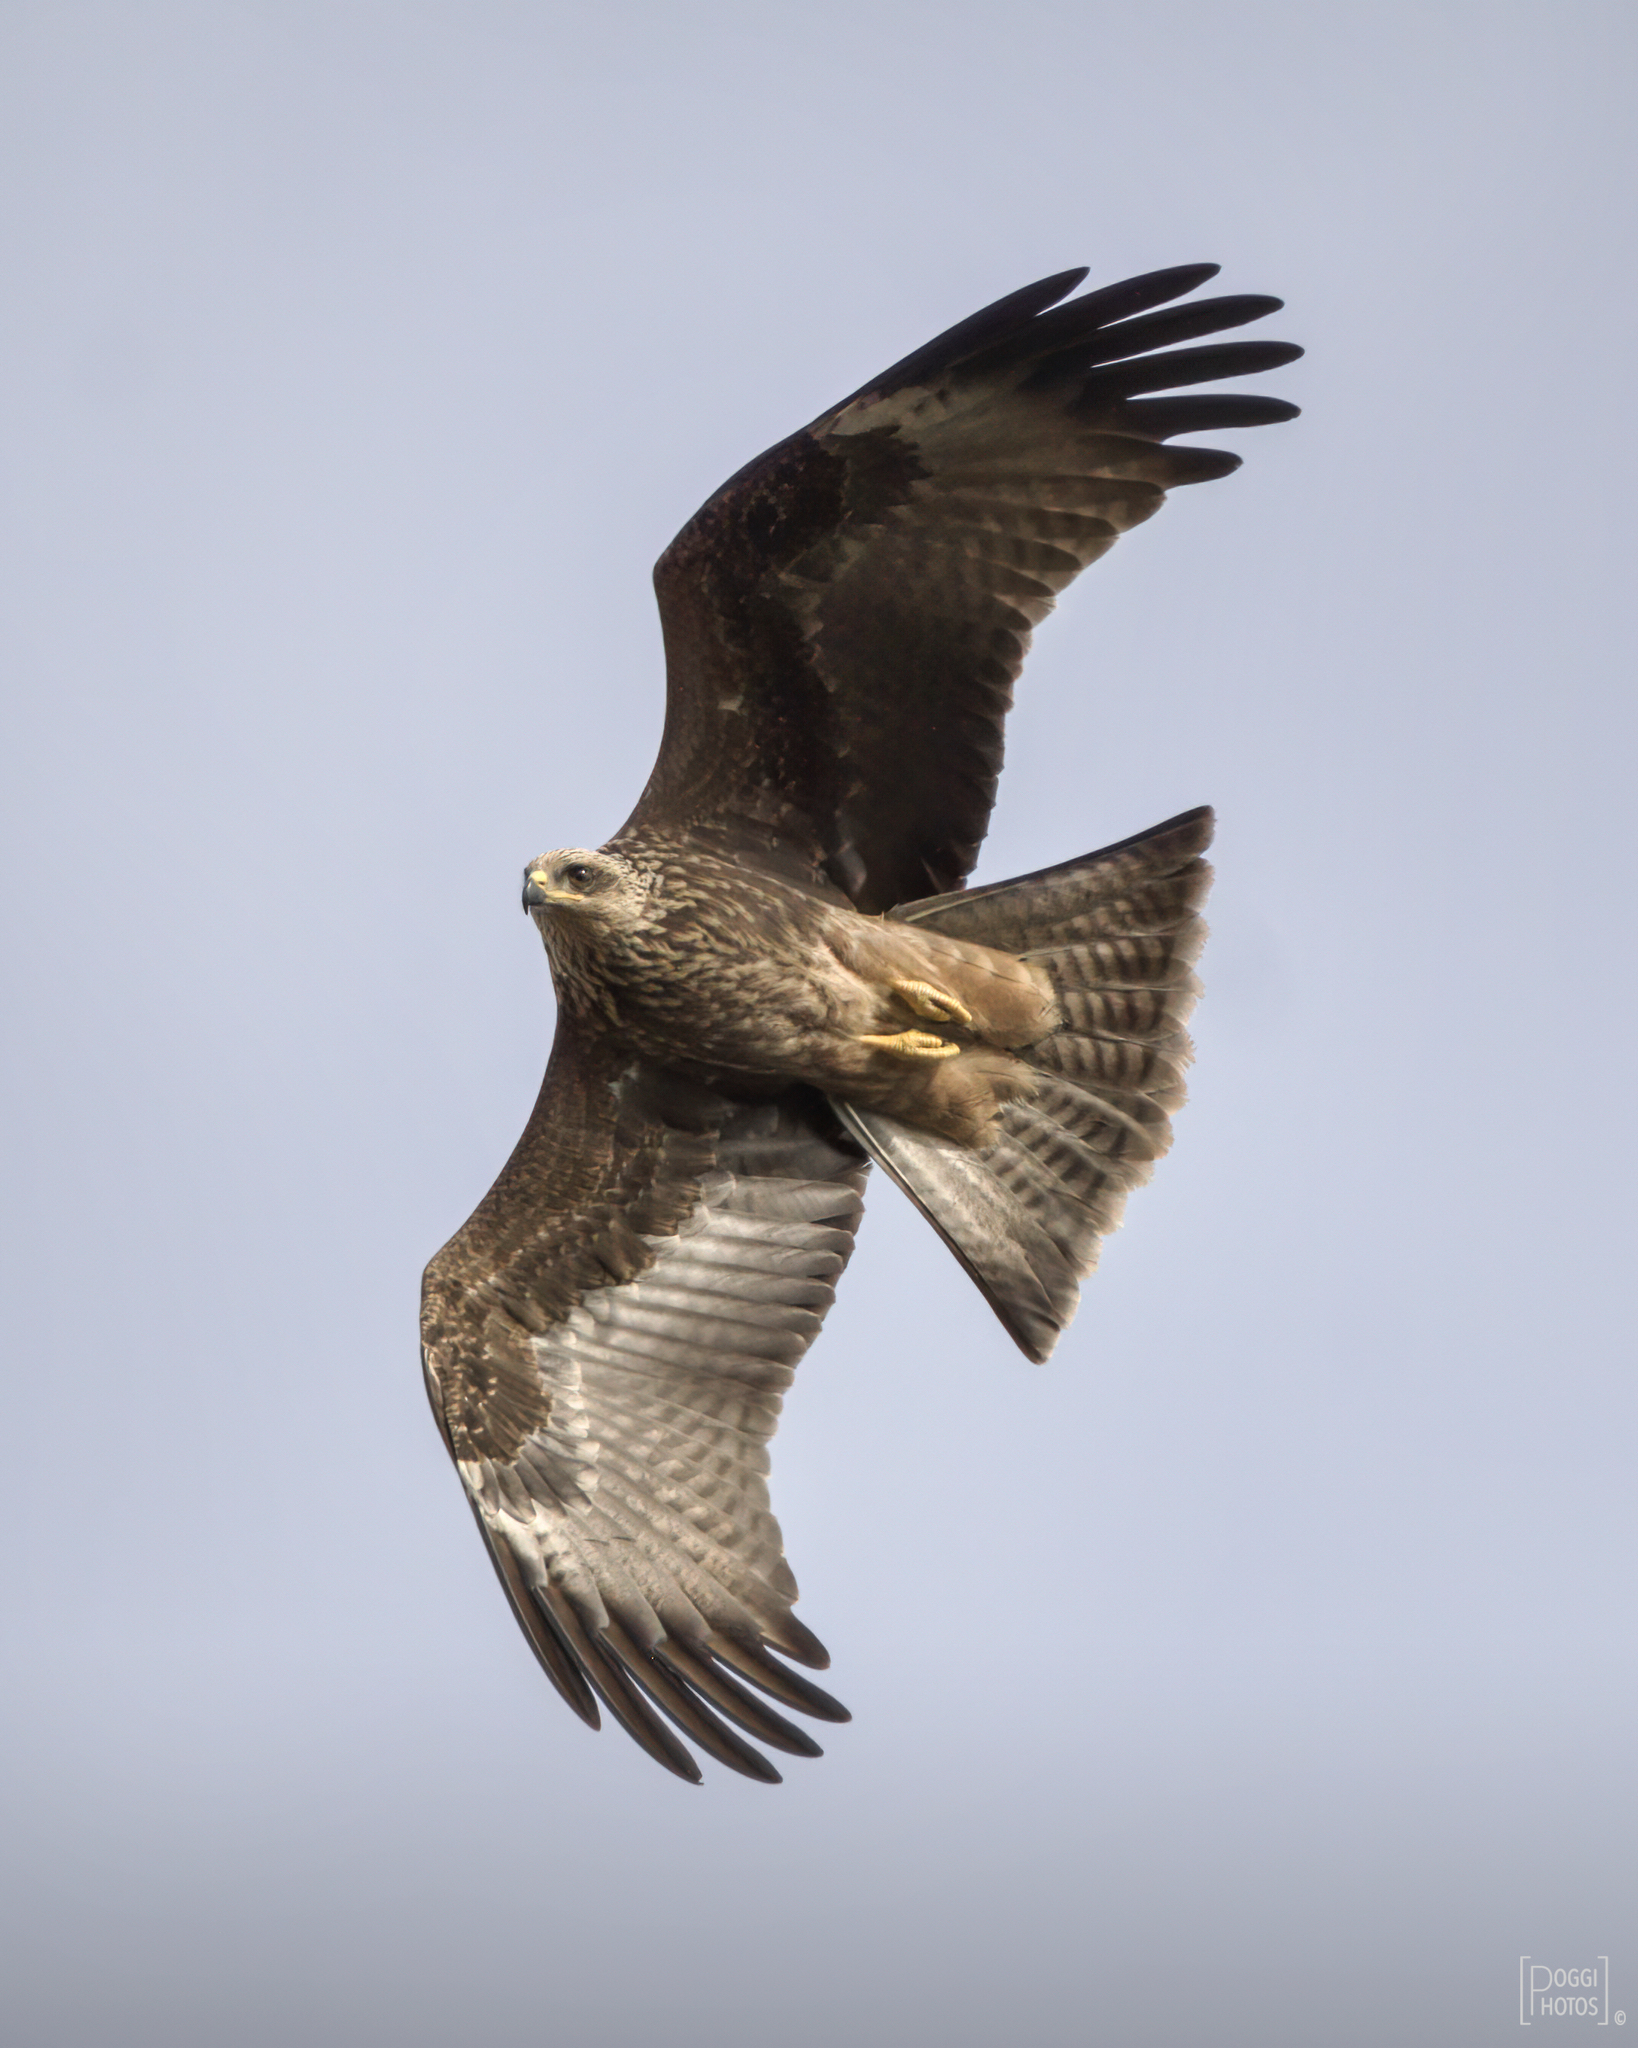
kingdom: Animalia
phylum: Chordata
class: Aves
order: Accipitriformes
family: Accipitridae
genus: Milvus
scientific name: Milvus migrans
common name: Black kite
